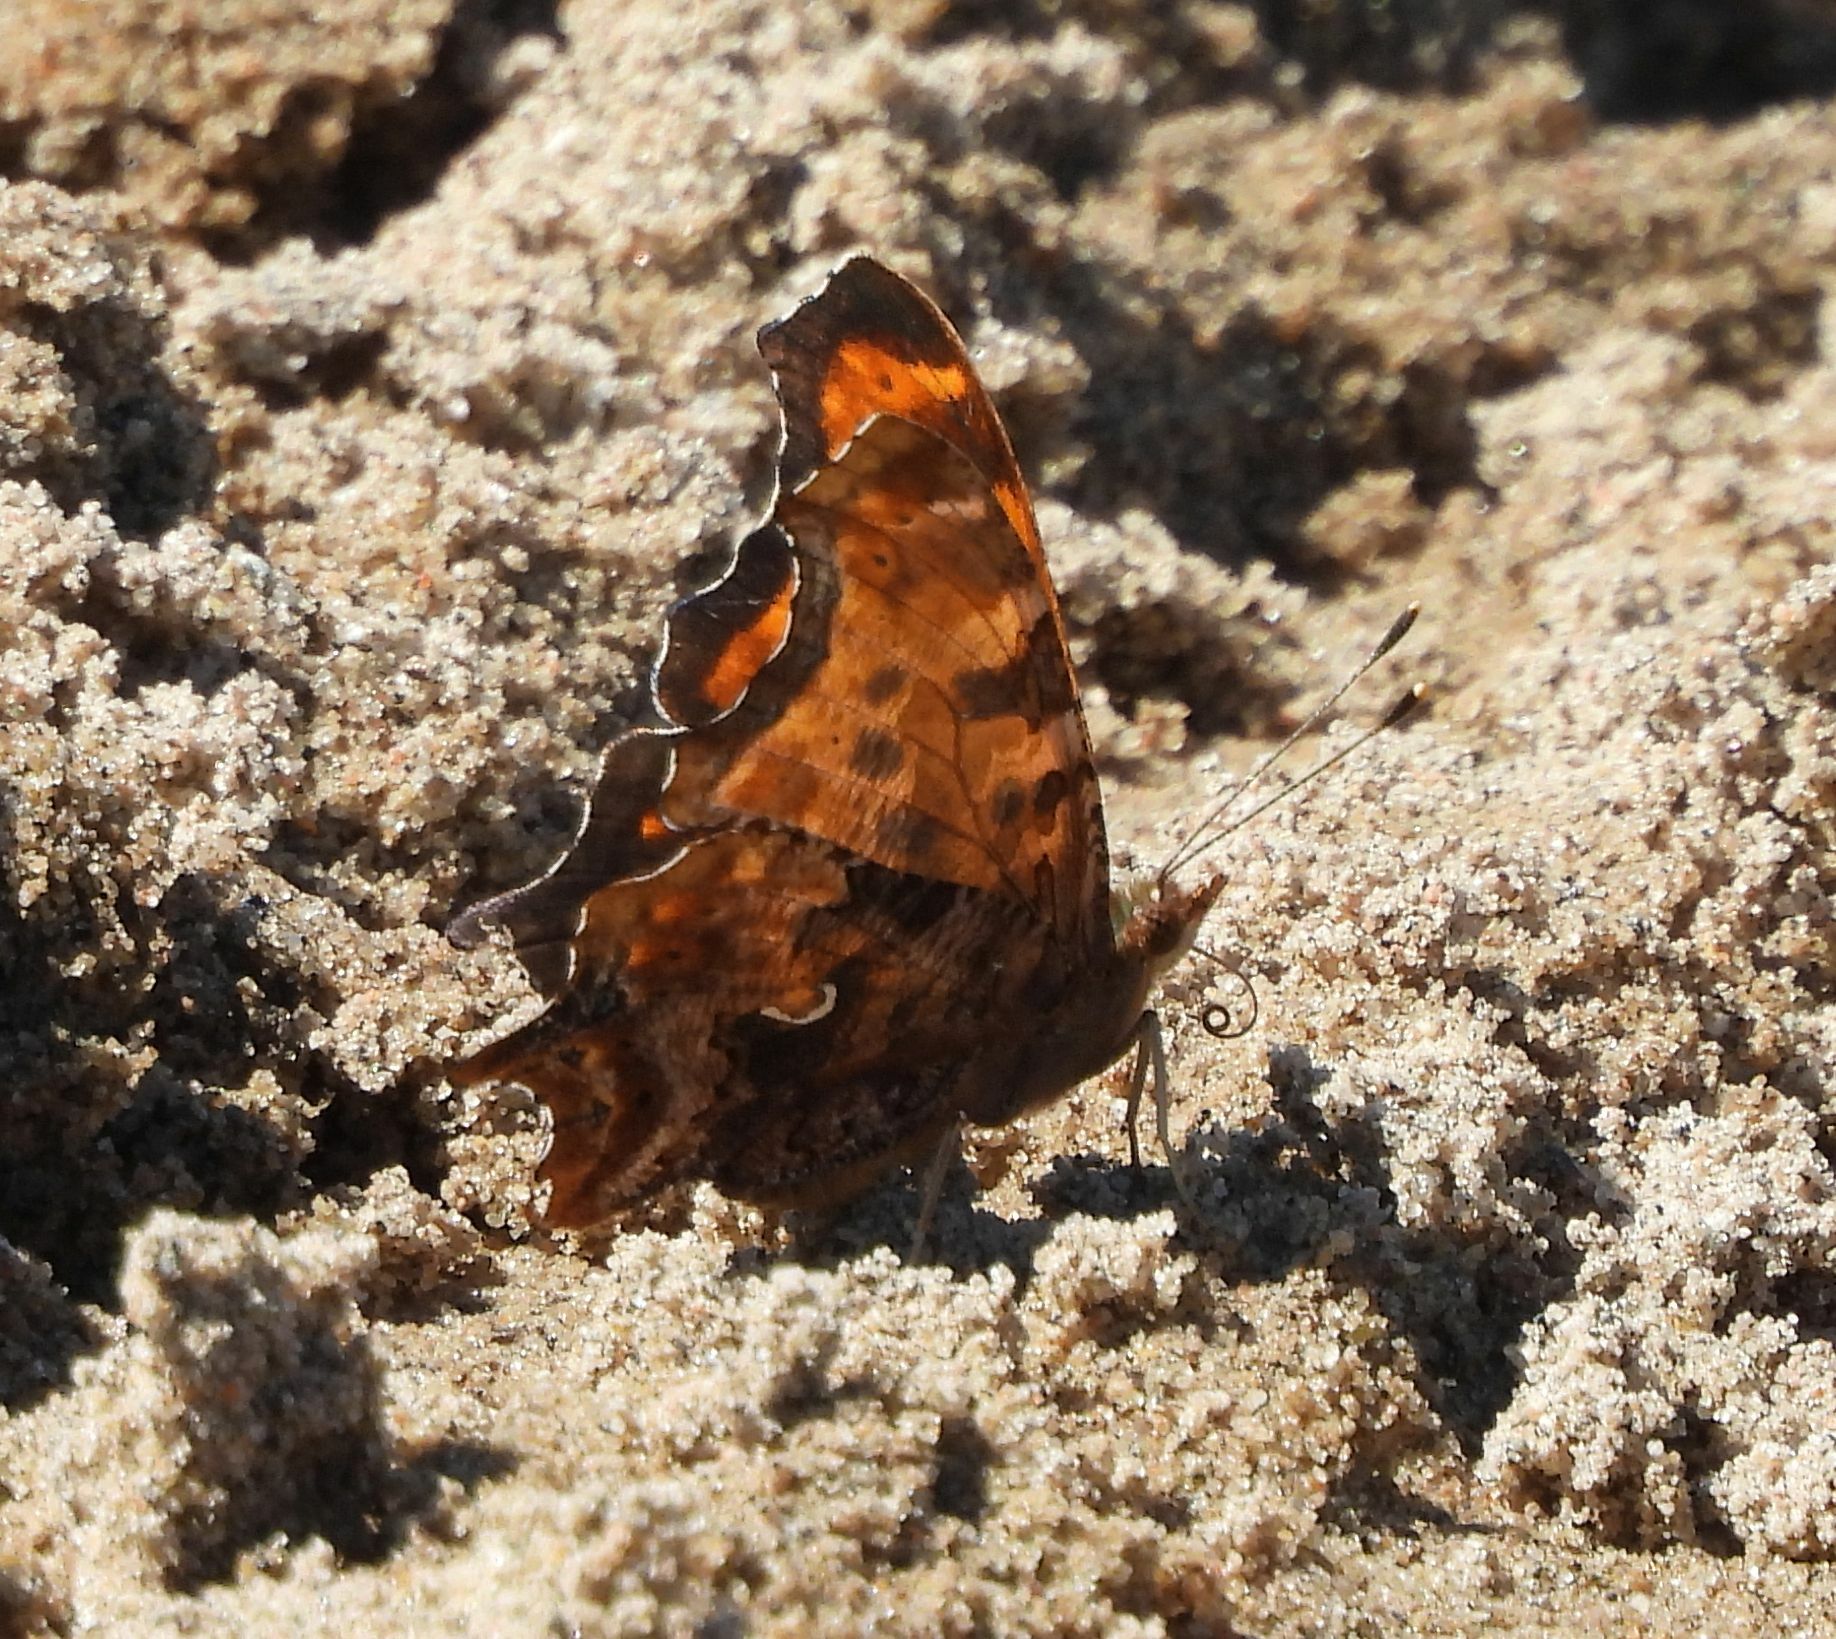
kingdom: Animalia
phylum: Arthropoda
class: Insecta
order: Lepidoptera
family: Nymphalidae
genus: Polygonia
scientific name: Polygonia comma
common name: Eastern comma
